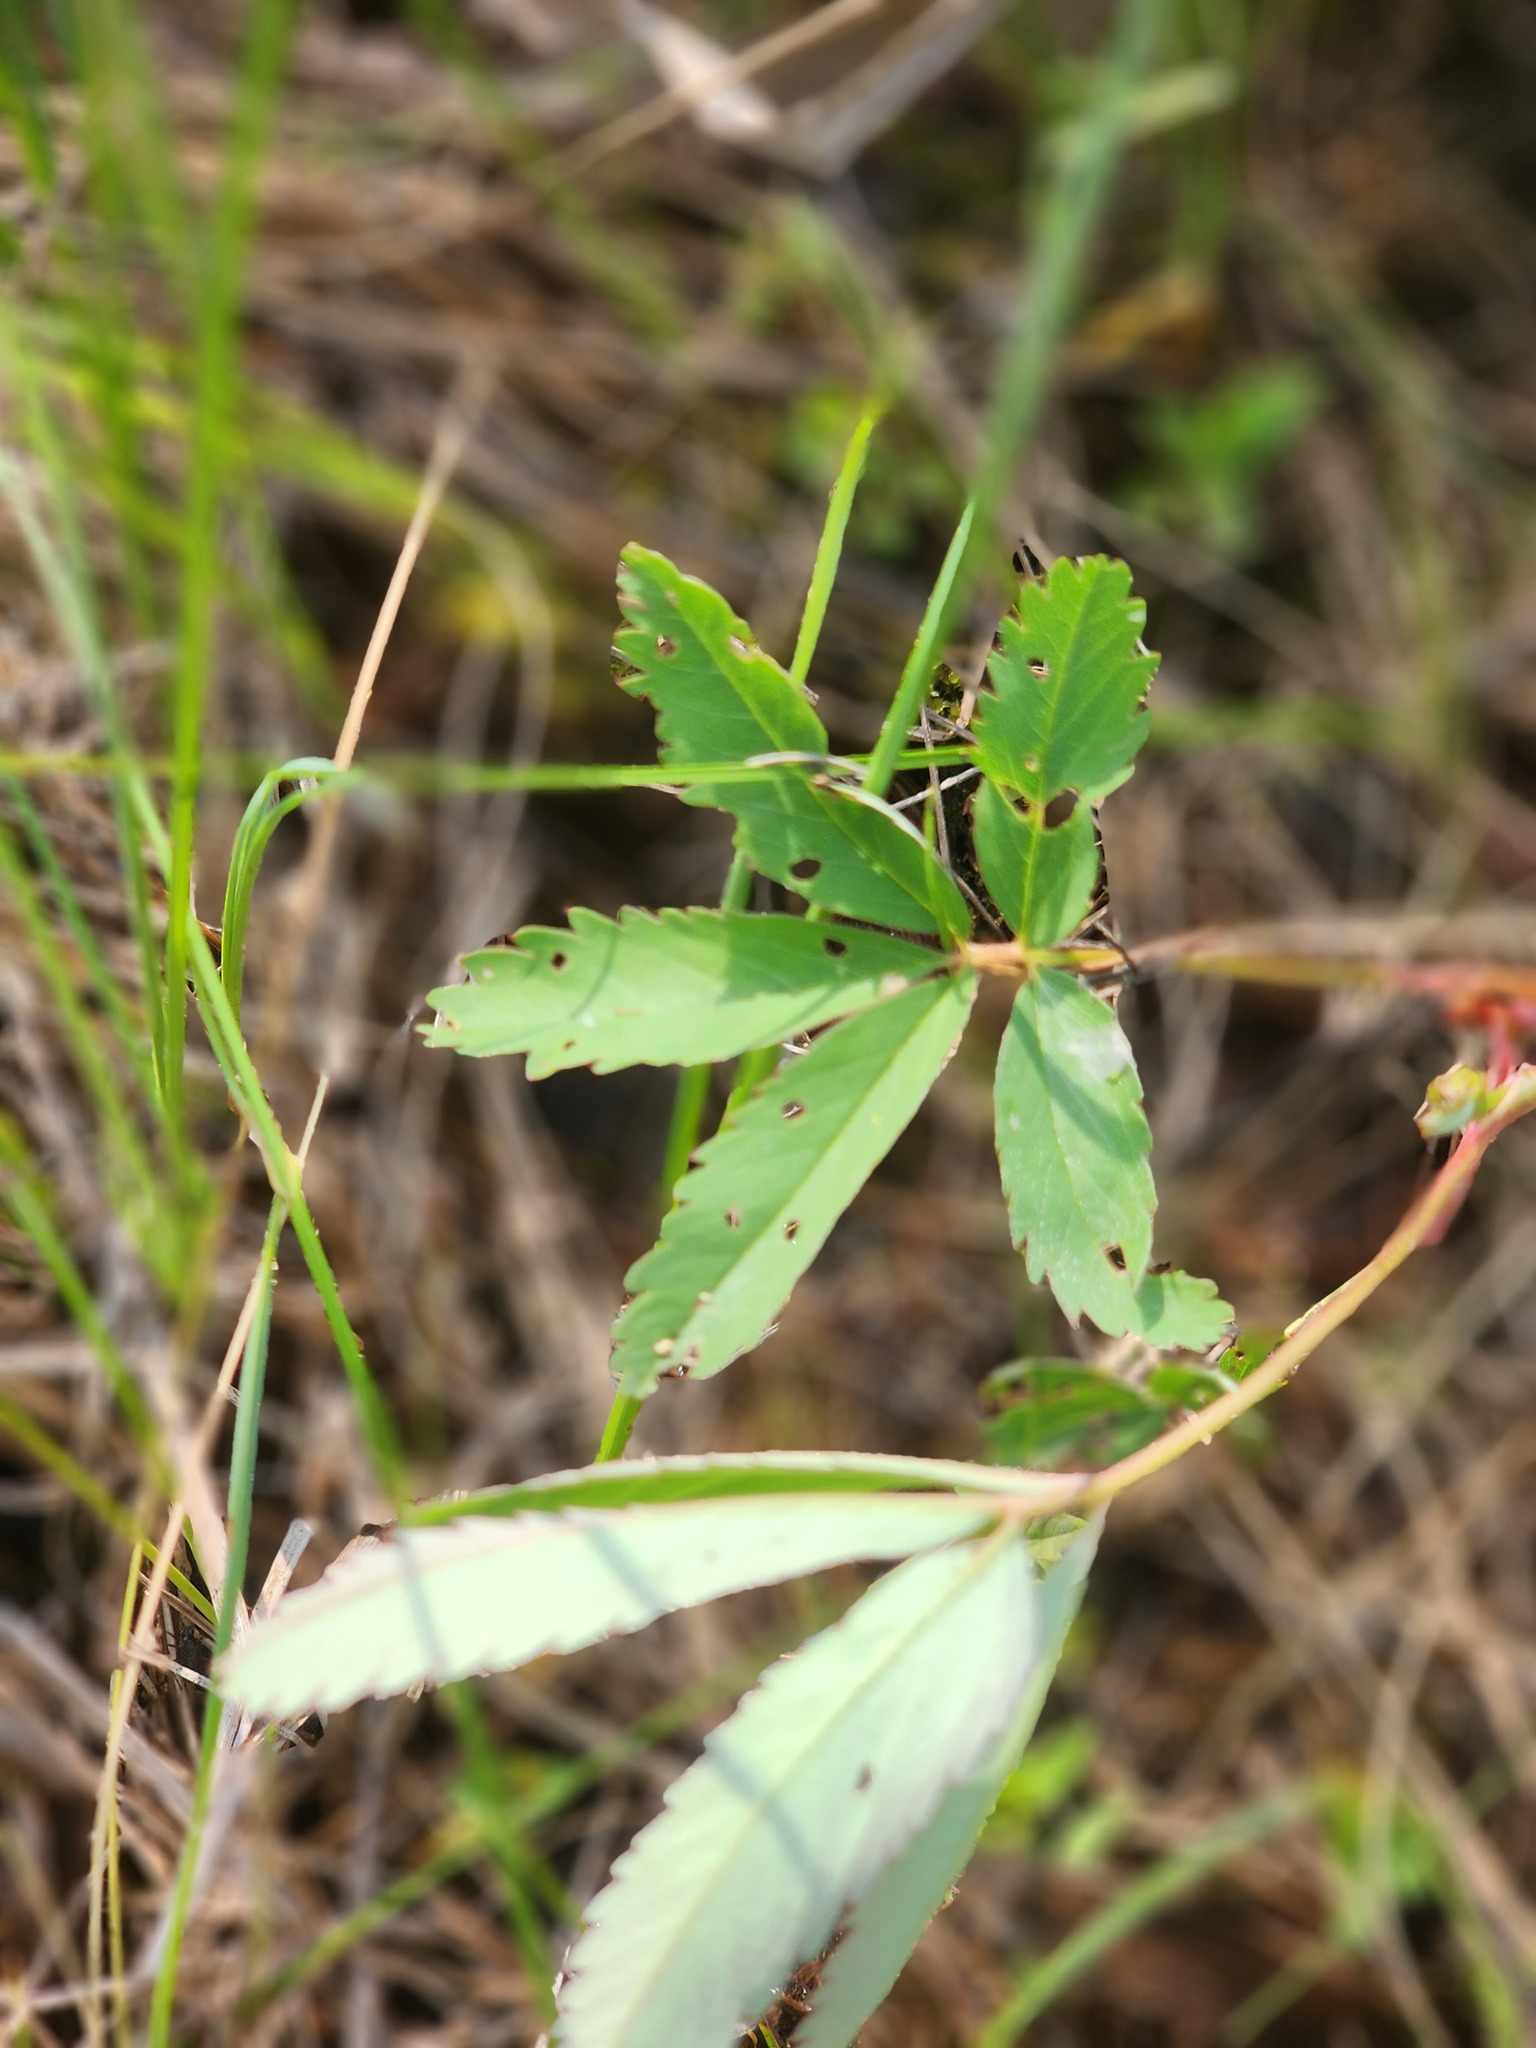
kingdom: Plantae
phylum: Tracheophyta
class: Magnoliopsida
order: Rosales
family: Rosaceae
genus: Comarum
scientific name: Comarum palustre
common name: Marsh cinquefoil
